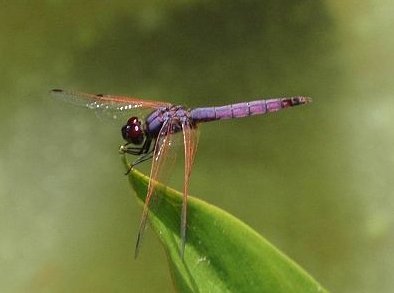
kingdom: Animalia
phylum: Arthropoda
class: Insecta
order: Odonata
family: Libellulidae
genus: Trithemis
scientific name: Trithemis persephone
